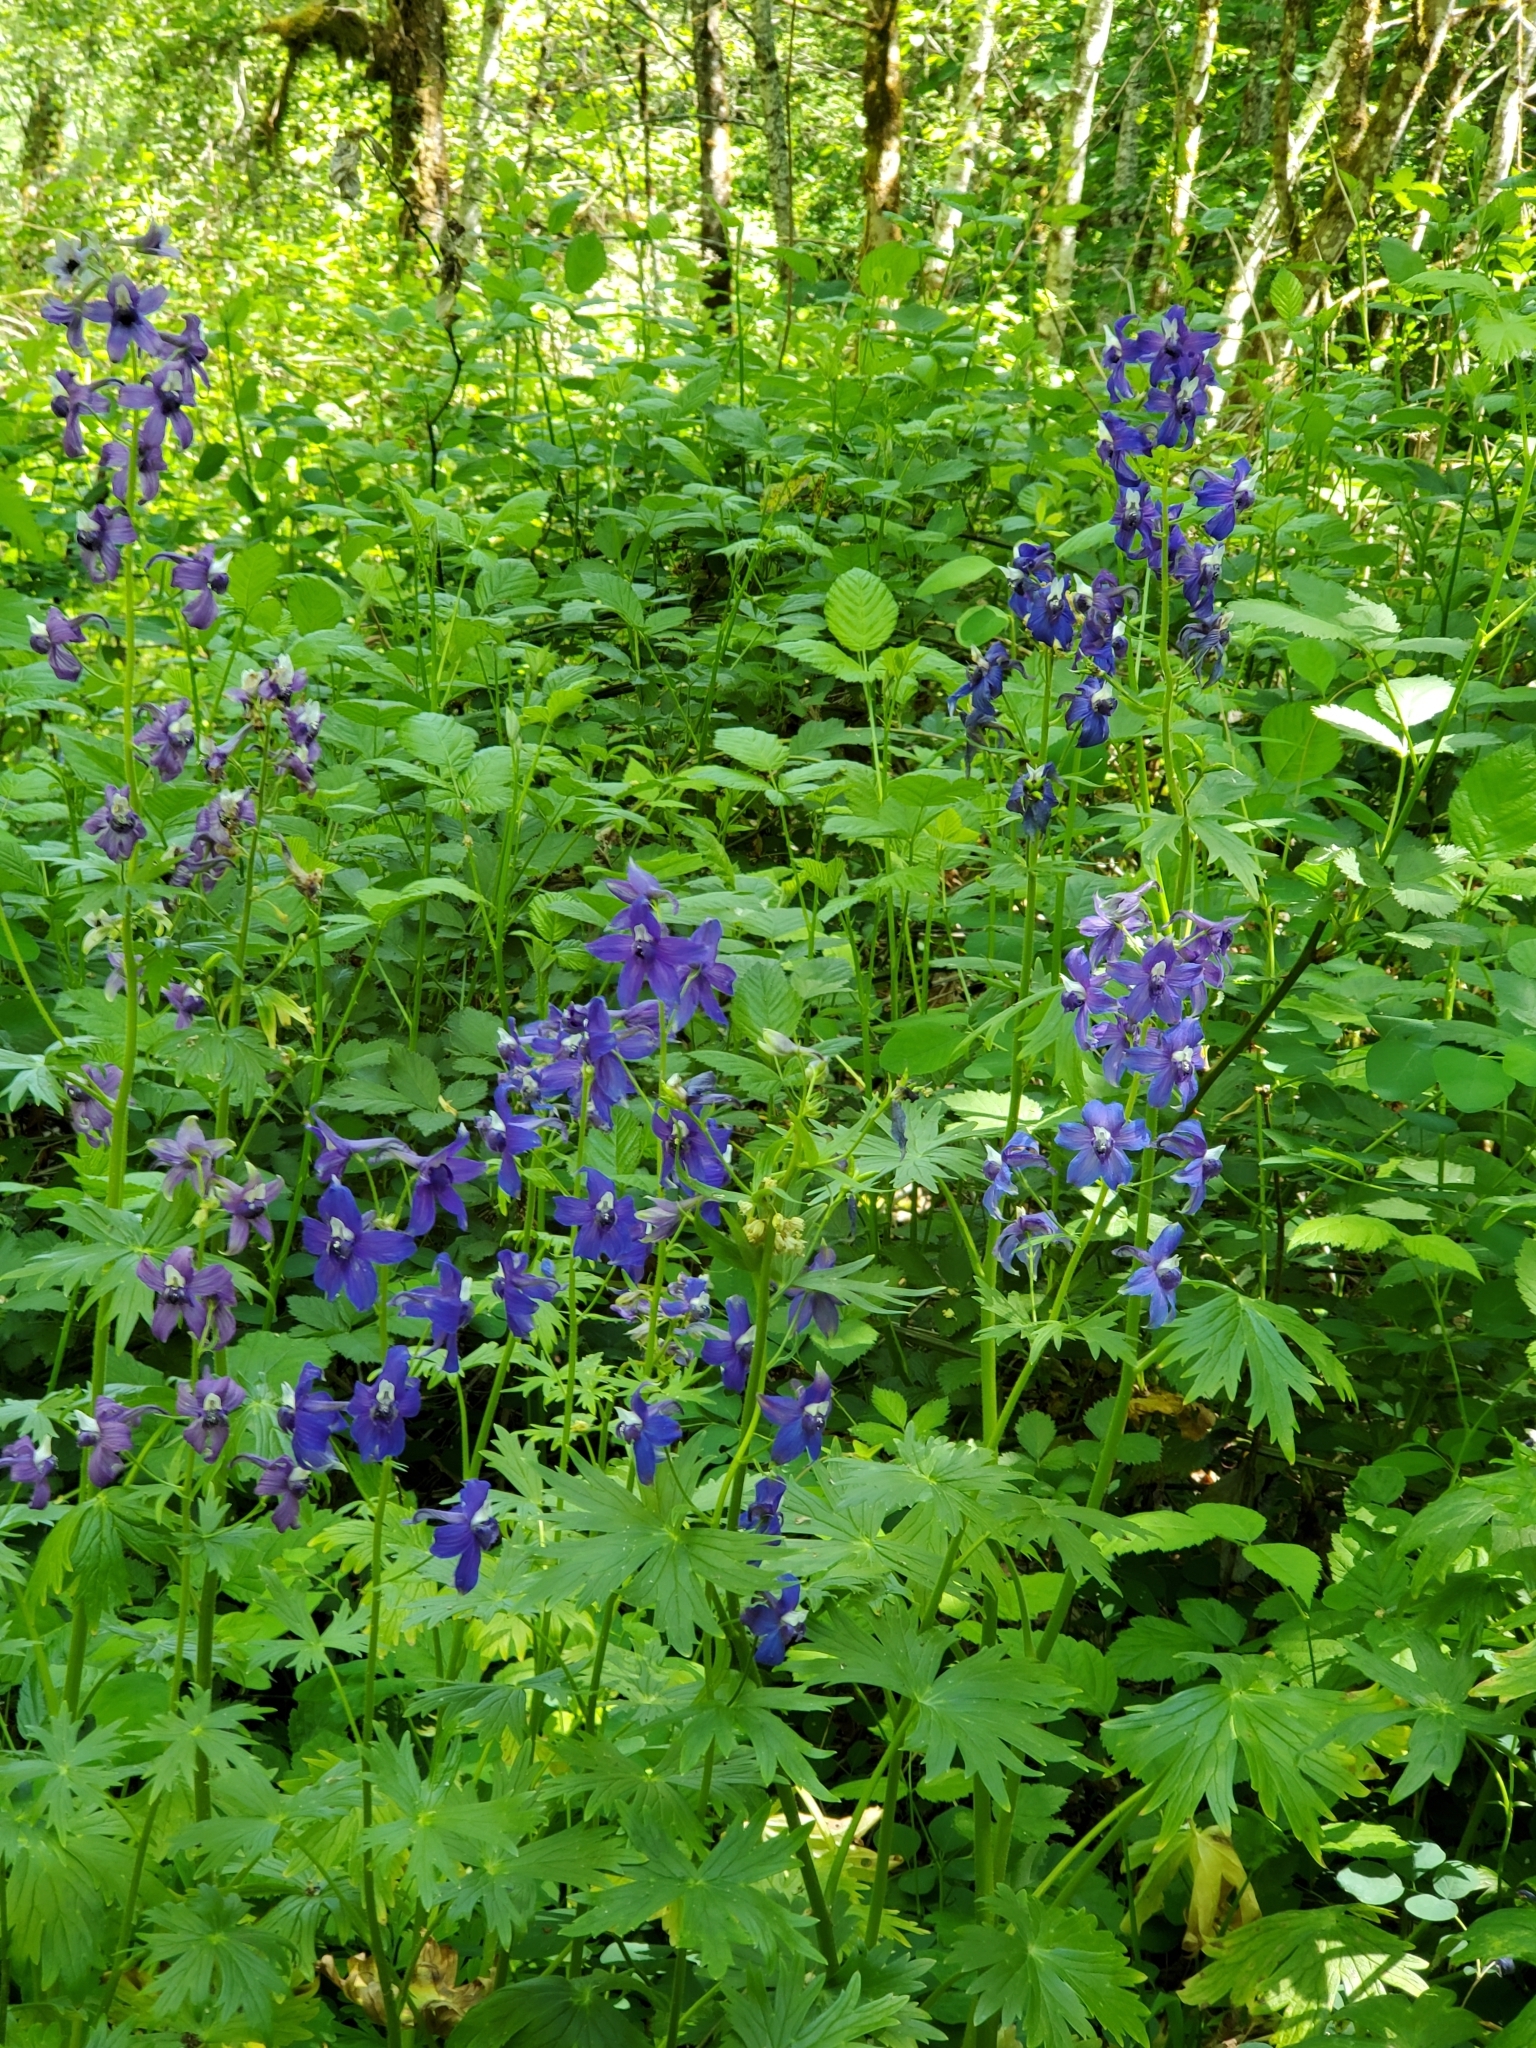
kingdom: Plantae
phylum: Tracheophyta
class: Magnoliopsida
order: Ranunculales
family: Ranunculaceae
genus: Delphinium
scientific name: Delphinium trolliifolium
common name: Cow-poison
